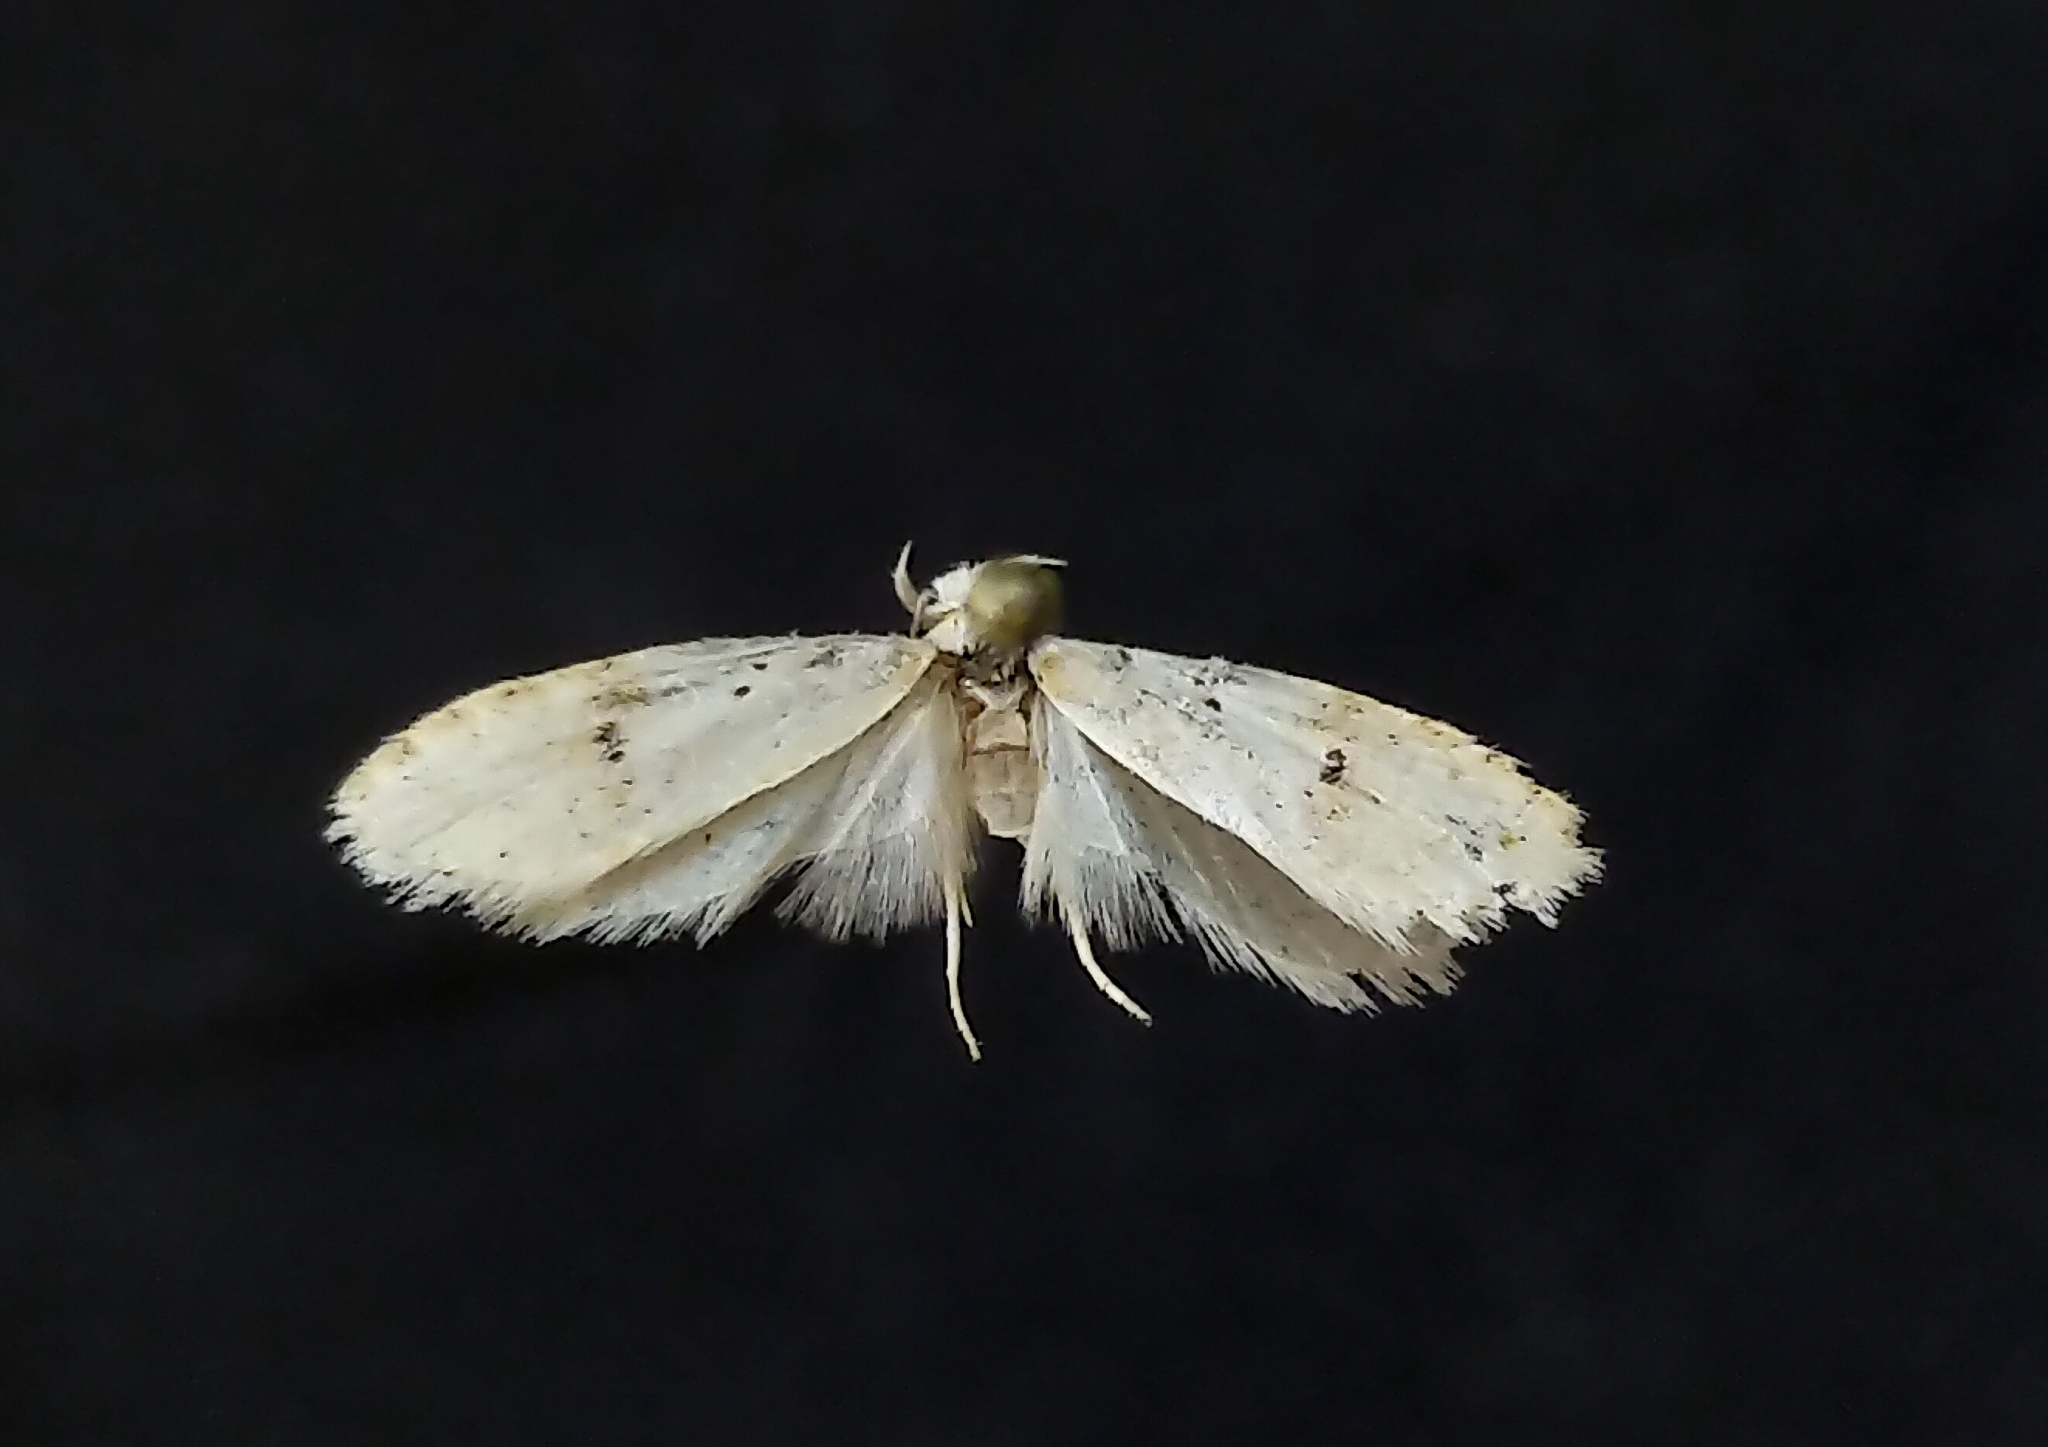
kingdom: Animalia
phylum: Arthropoda
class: Insecta
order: Lepidoptera
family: Depressariidae
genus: Exaeretia
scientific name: Exaeretia nivalis
